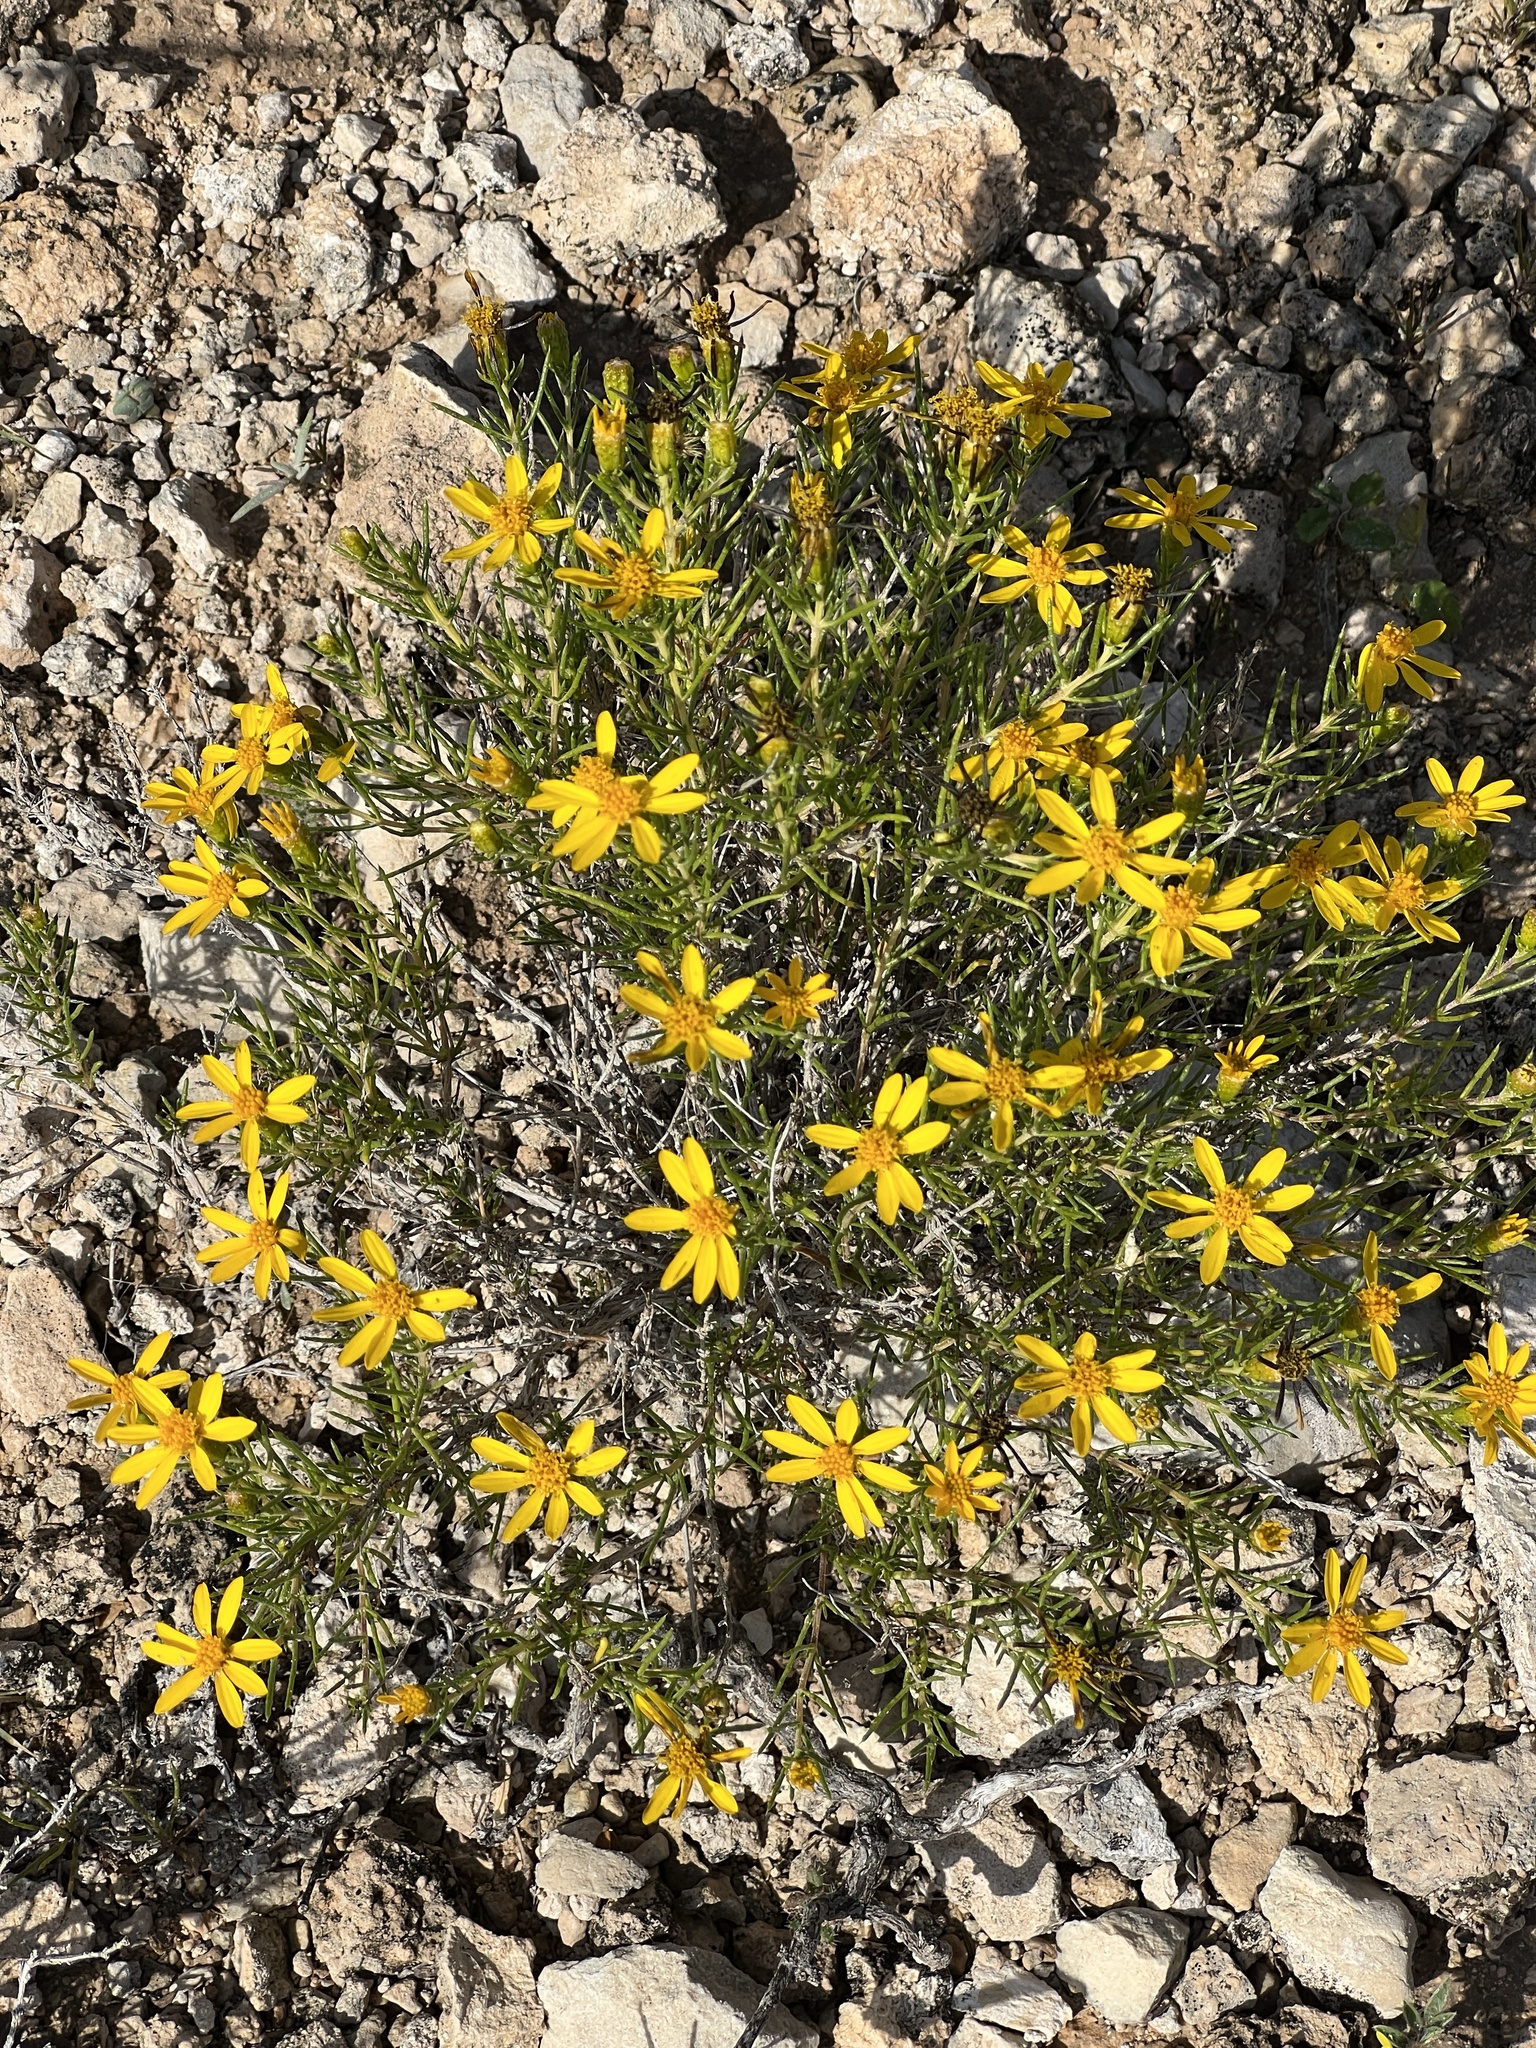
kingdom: Plantae
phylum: Tracheophyta
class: Magnoliopsida
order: Asterales
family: Asteraceae
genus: Thymophylla
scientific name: Thymophylla acerosa
